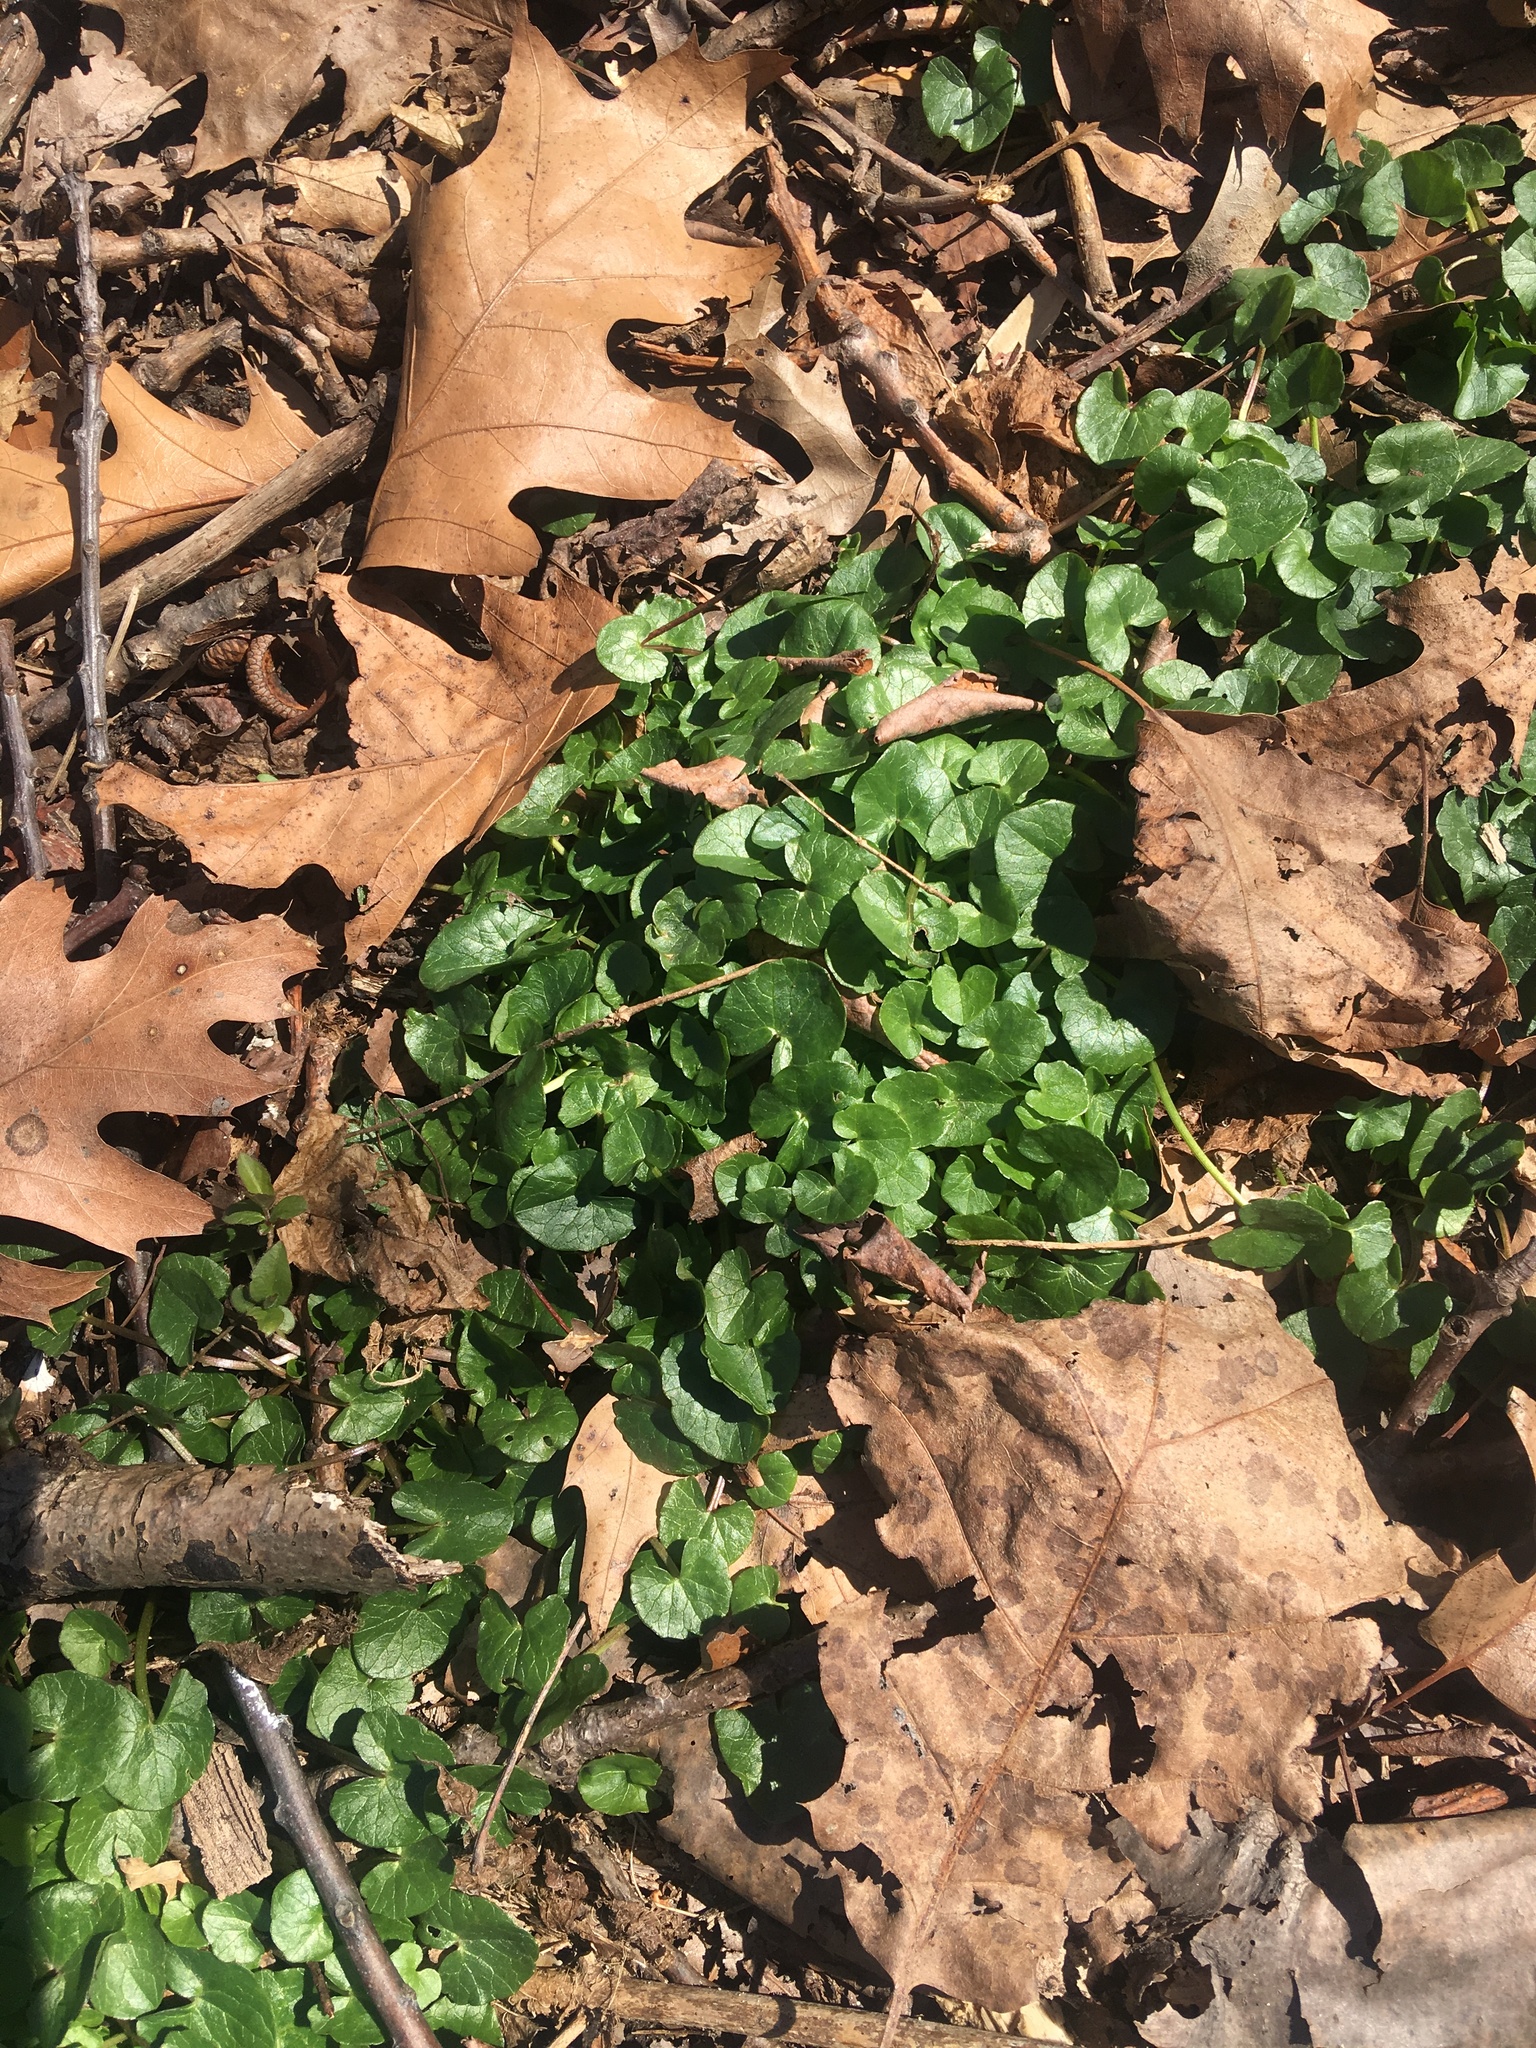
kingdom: Plantae
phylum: Tracheophyta
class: Magnoliopsida
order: Ranunculales
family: Ranunculaceae
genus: Ficaria
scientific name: Ficaria verna
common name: Lesser celandine
